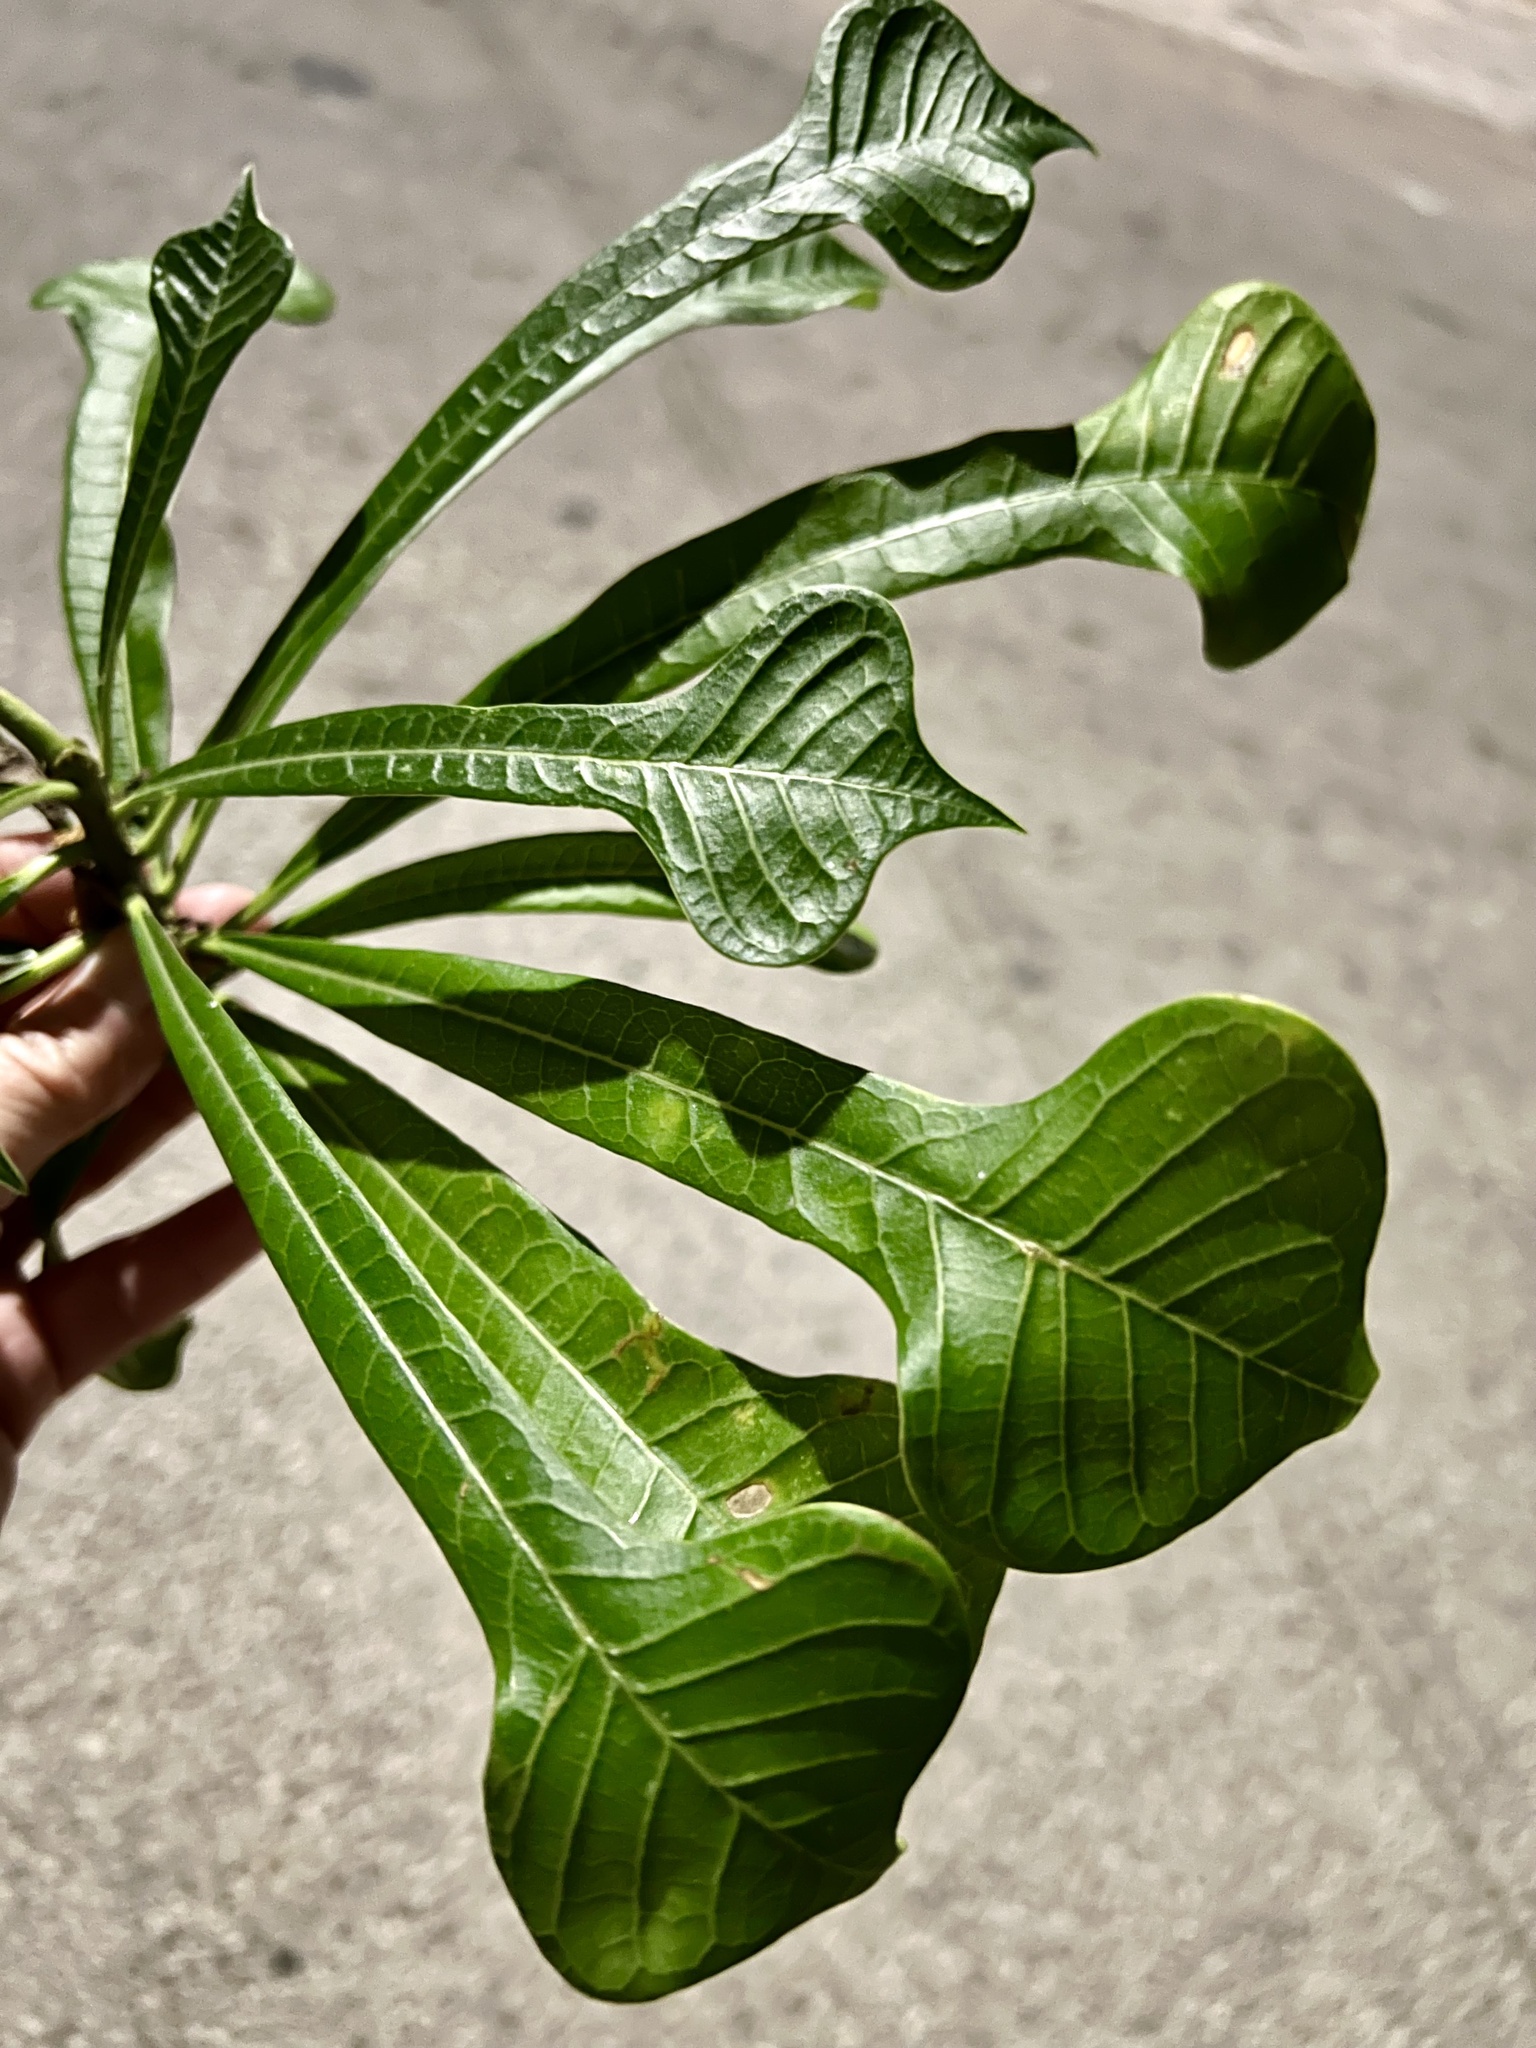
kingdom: Plantae
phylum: Tracheophyta
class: Magnoliopsida
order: Gentianales
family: Apocynaceae
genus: Plumeria
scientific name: Plumeria pudica
